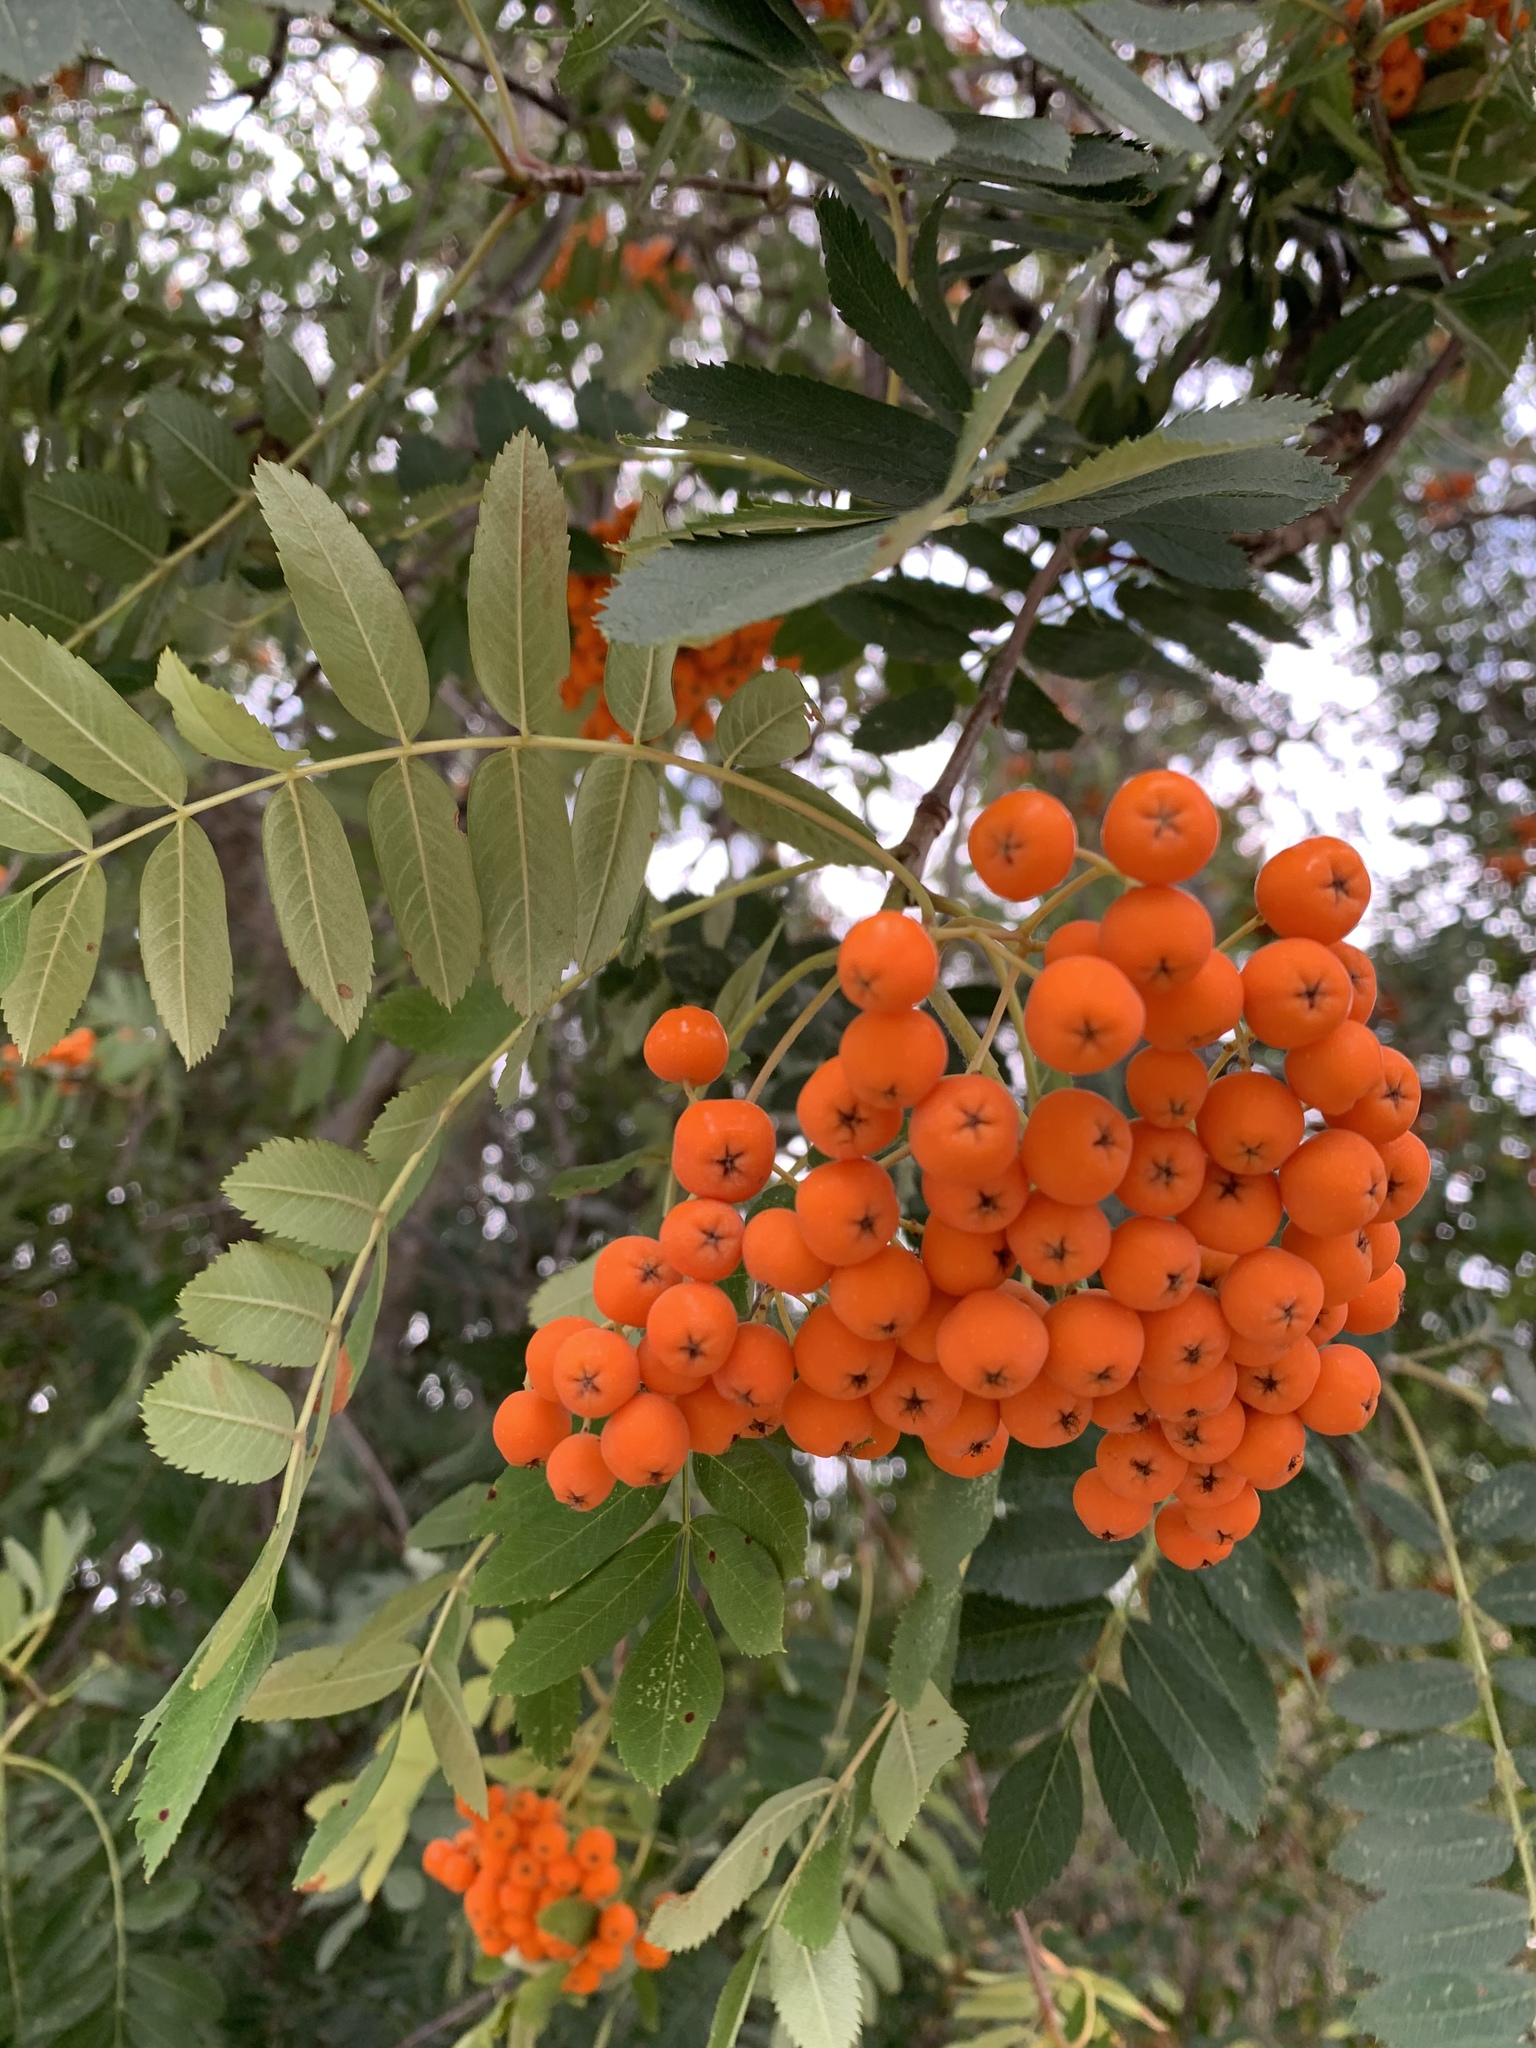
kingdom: Plantae
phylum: Tracheophyta
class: Magnoliopsida
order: Rosales
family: Rosaceae
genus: Sorbus
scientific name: Sorbus aucuparia
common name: Rowan
